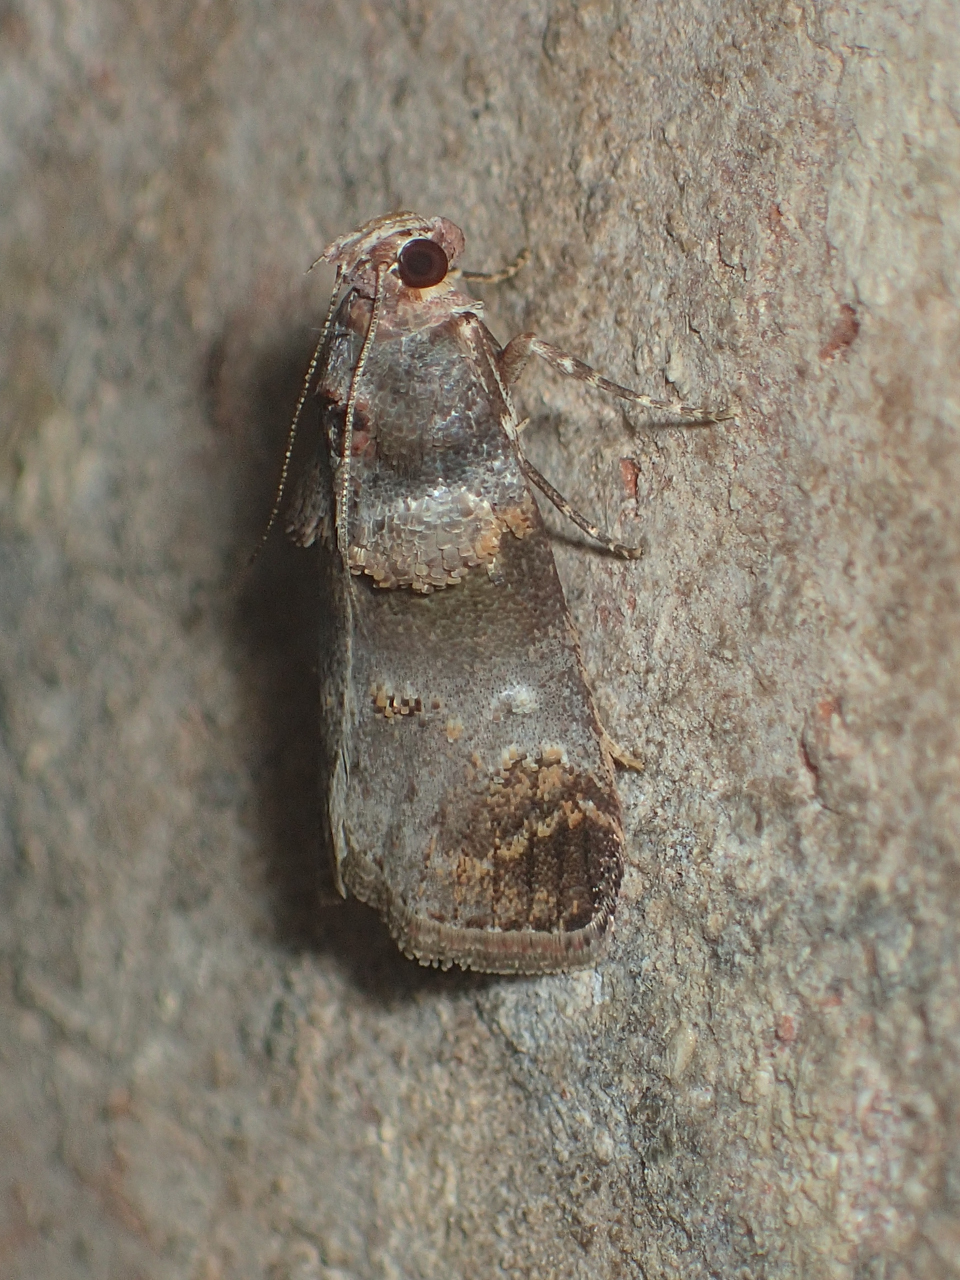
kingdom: Animalia
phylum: Arthropoda
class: Insecta
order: Lepidoptera
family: Pyralidae
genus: Oneida
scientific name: Oneida lunulalis
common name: Orange-tufted oneida moth
